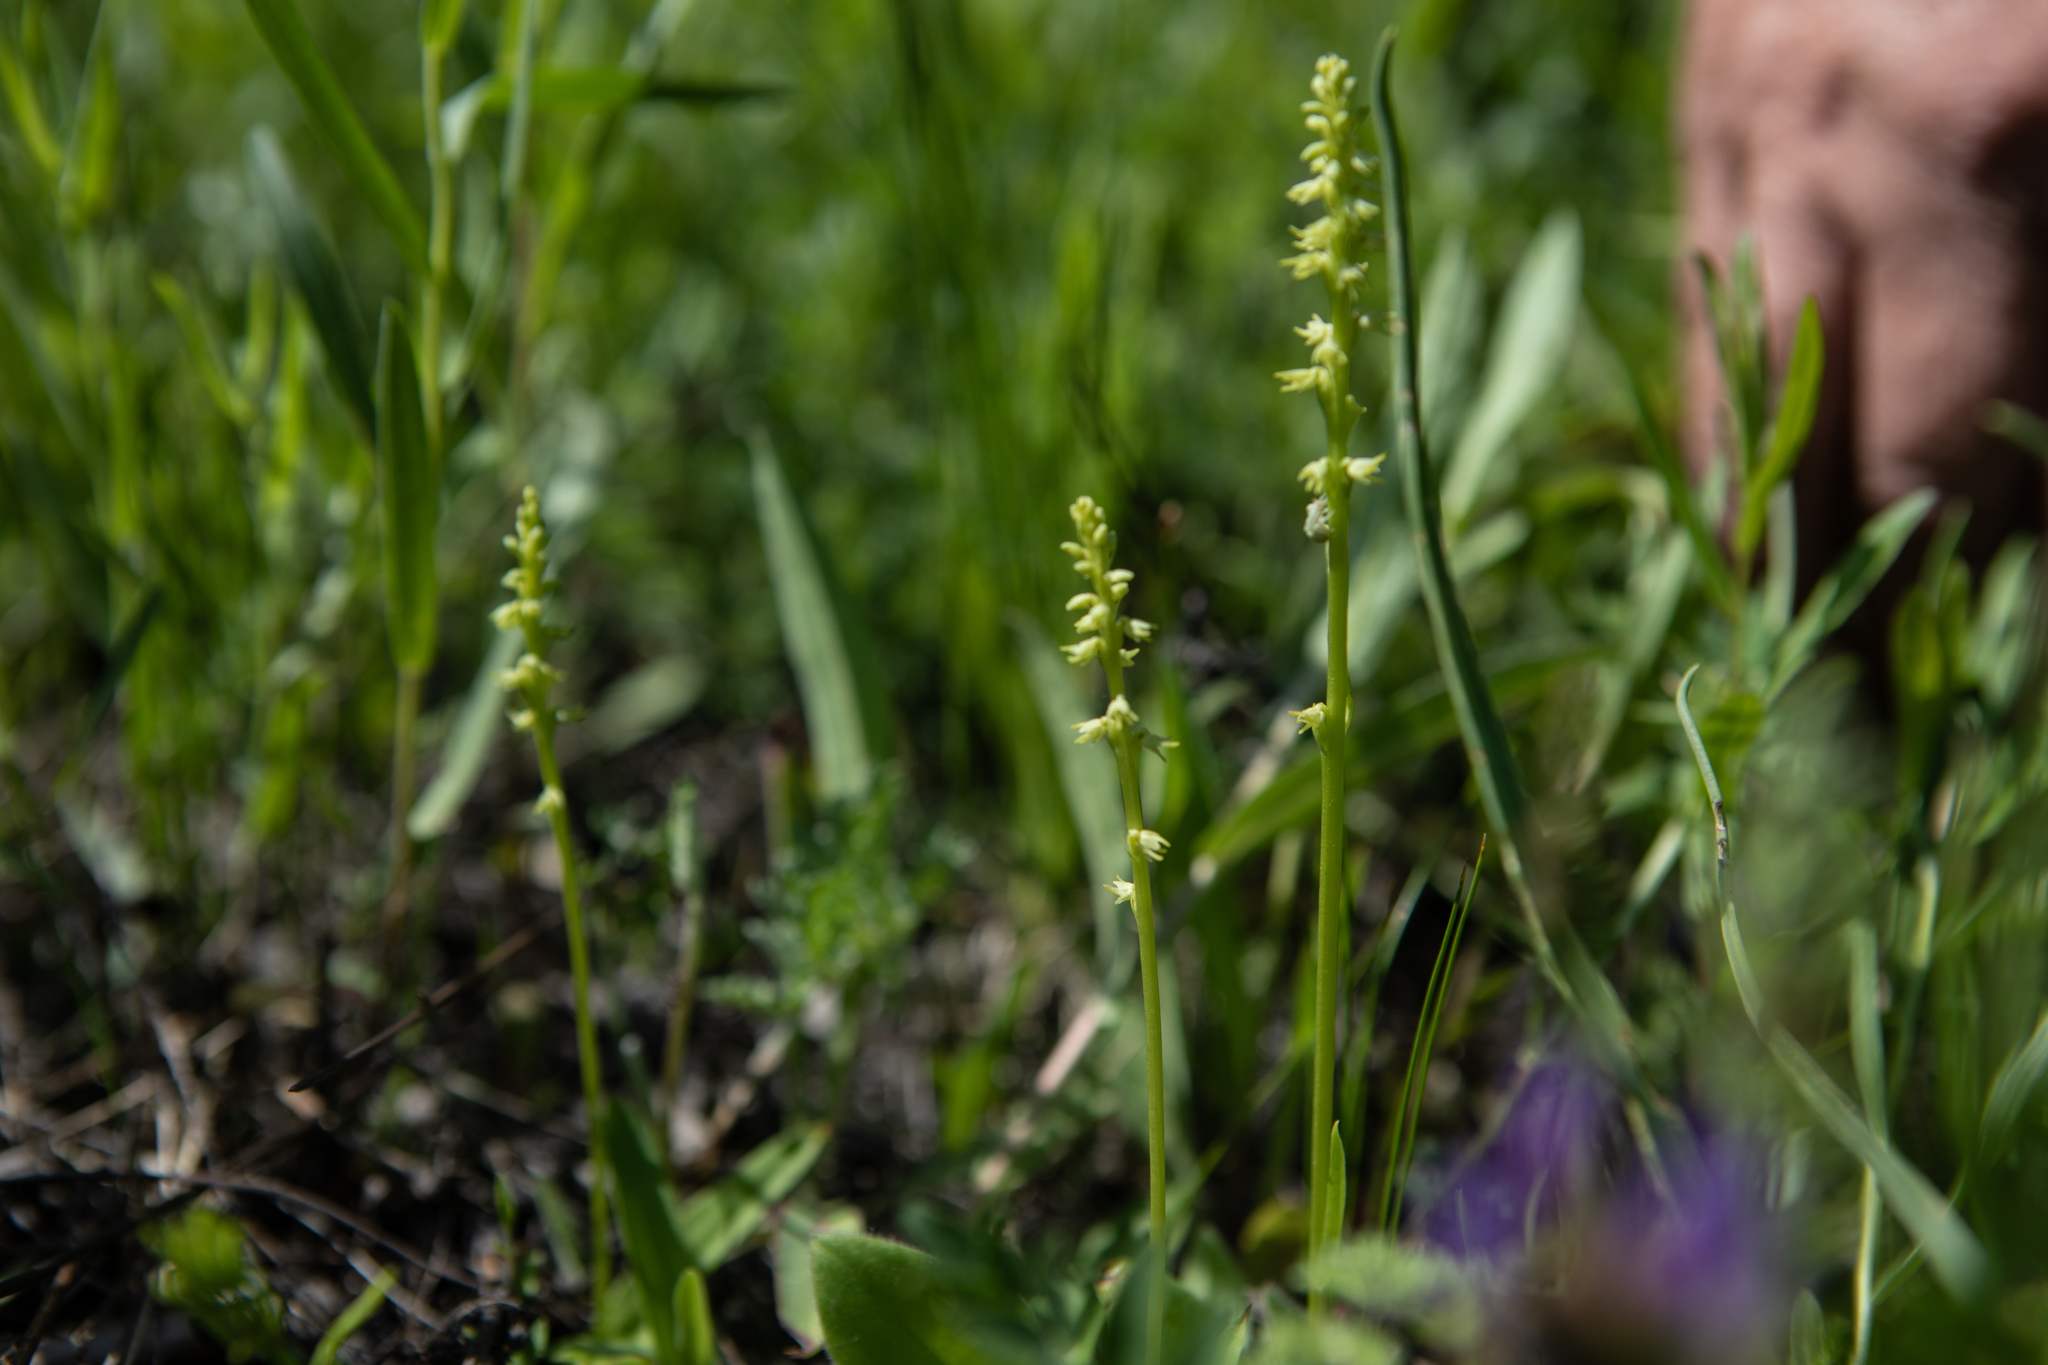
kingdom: Plantae
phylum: Tracheophyta
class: Liliopsida
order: Asparagales
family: Orchidaceae
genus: Herminium
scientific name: Herminium monorchis
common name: Musk orchid
